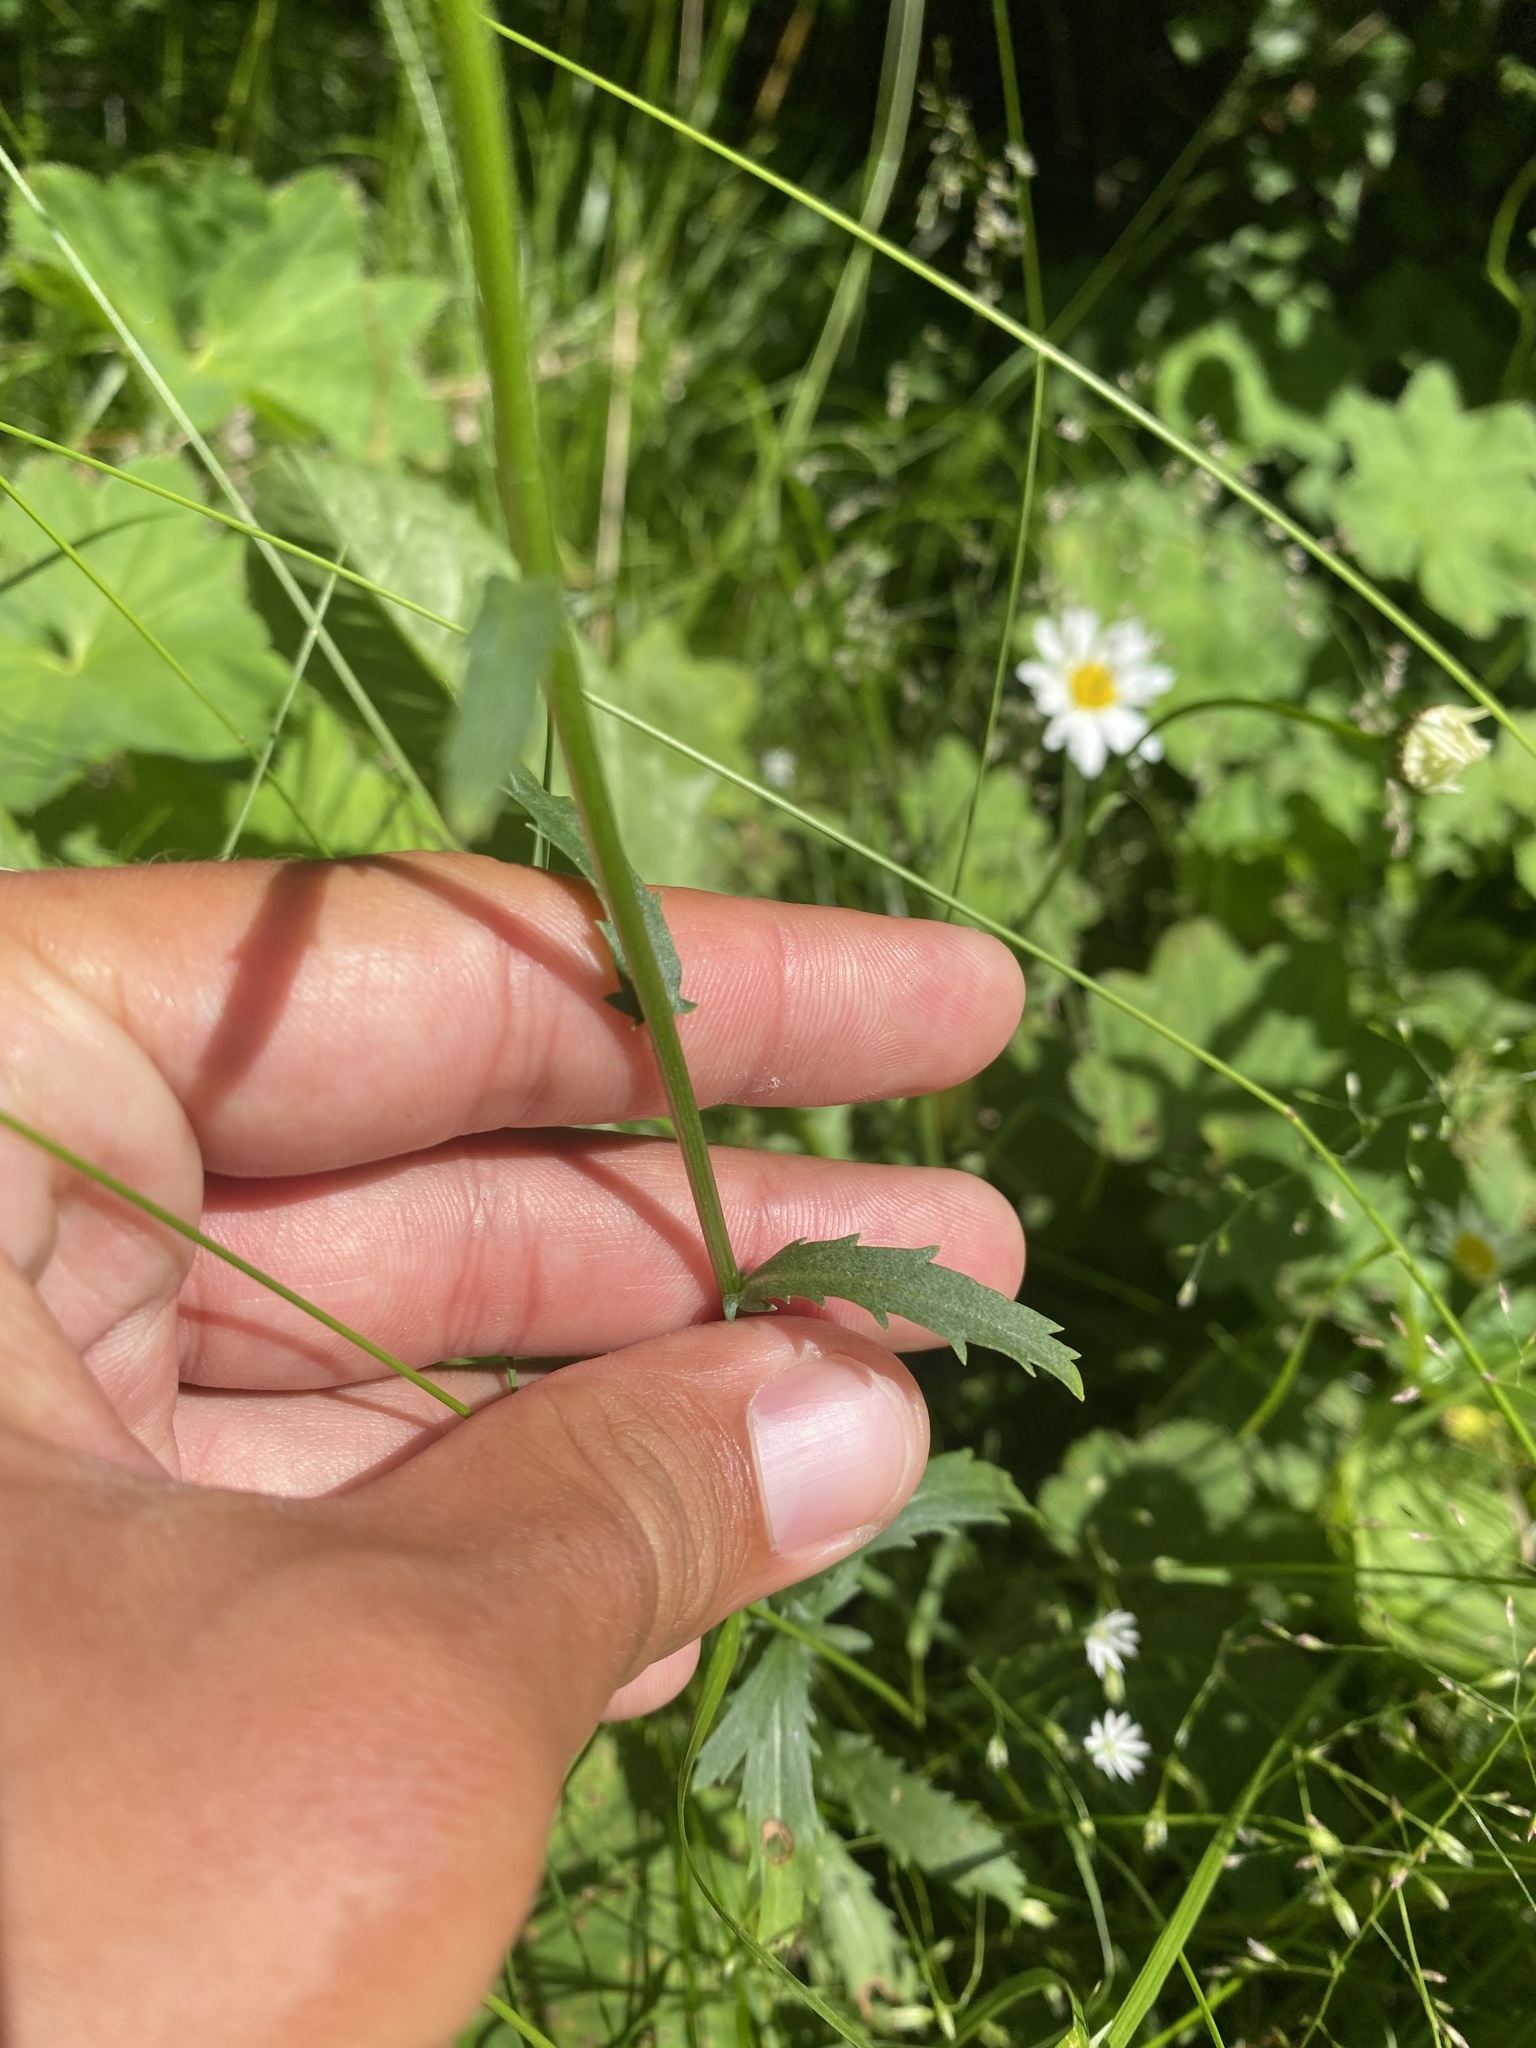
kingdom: Plantae
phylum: Tracheophyta
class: Magnoliopsida
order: Asterales
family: Asteraceae
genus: Leucanthemum
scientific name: Leucanthemum ircutianum
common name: Daisy
